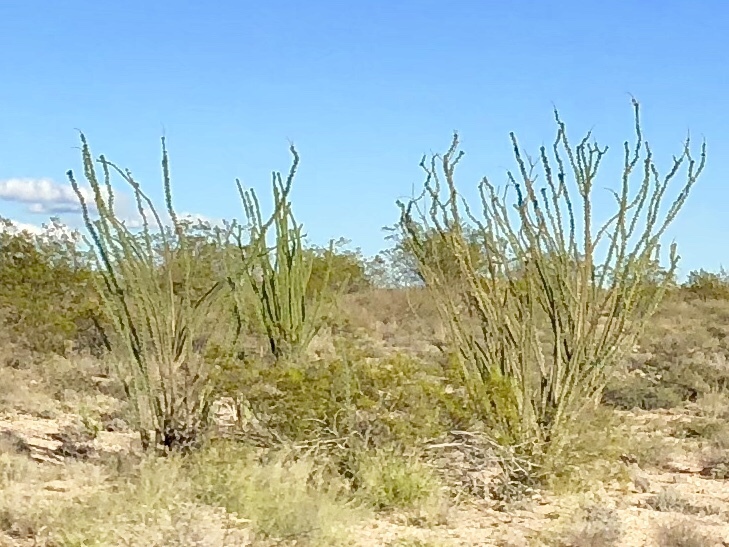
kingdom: Plantae
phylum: Tracheophyta
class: Magnoliopsida
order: Ericales
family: Fouquieriaceae
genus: Fouquieria
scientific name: Fouquieria splendens
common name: Vine-cactus
